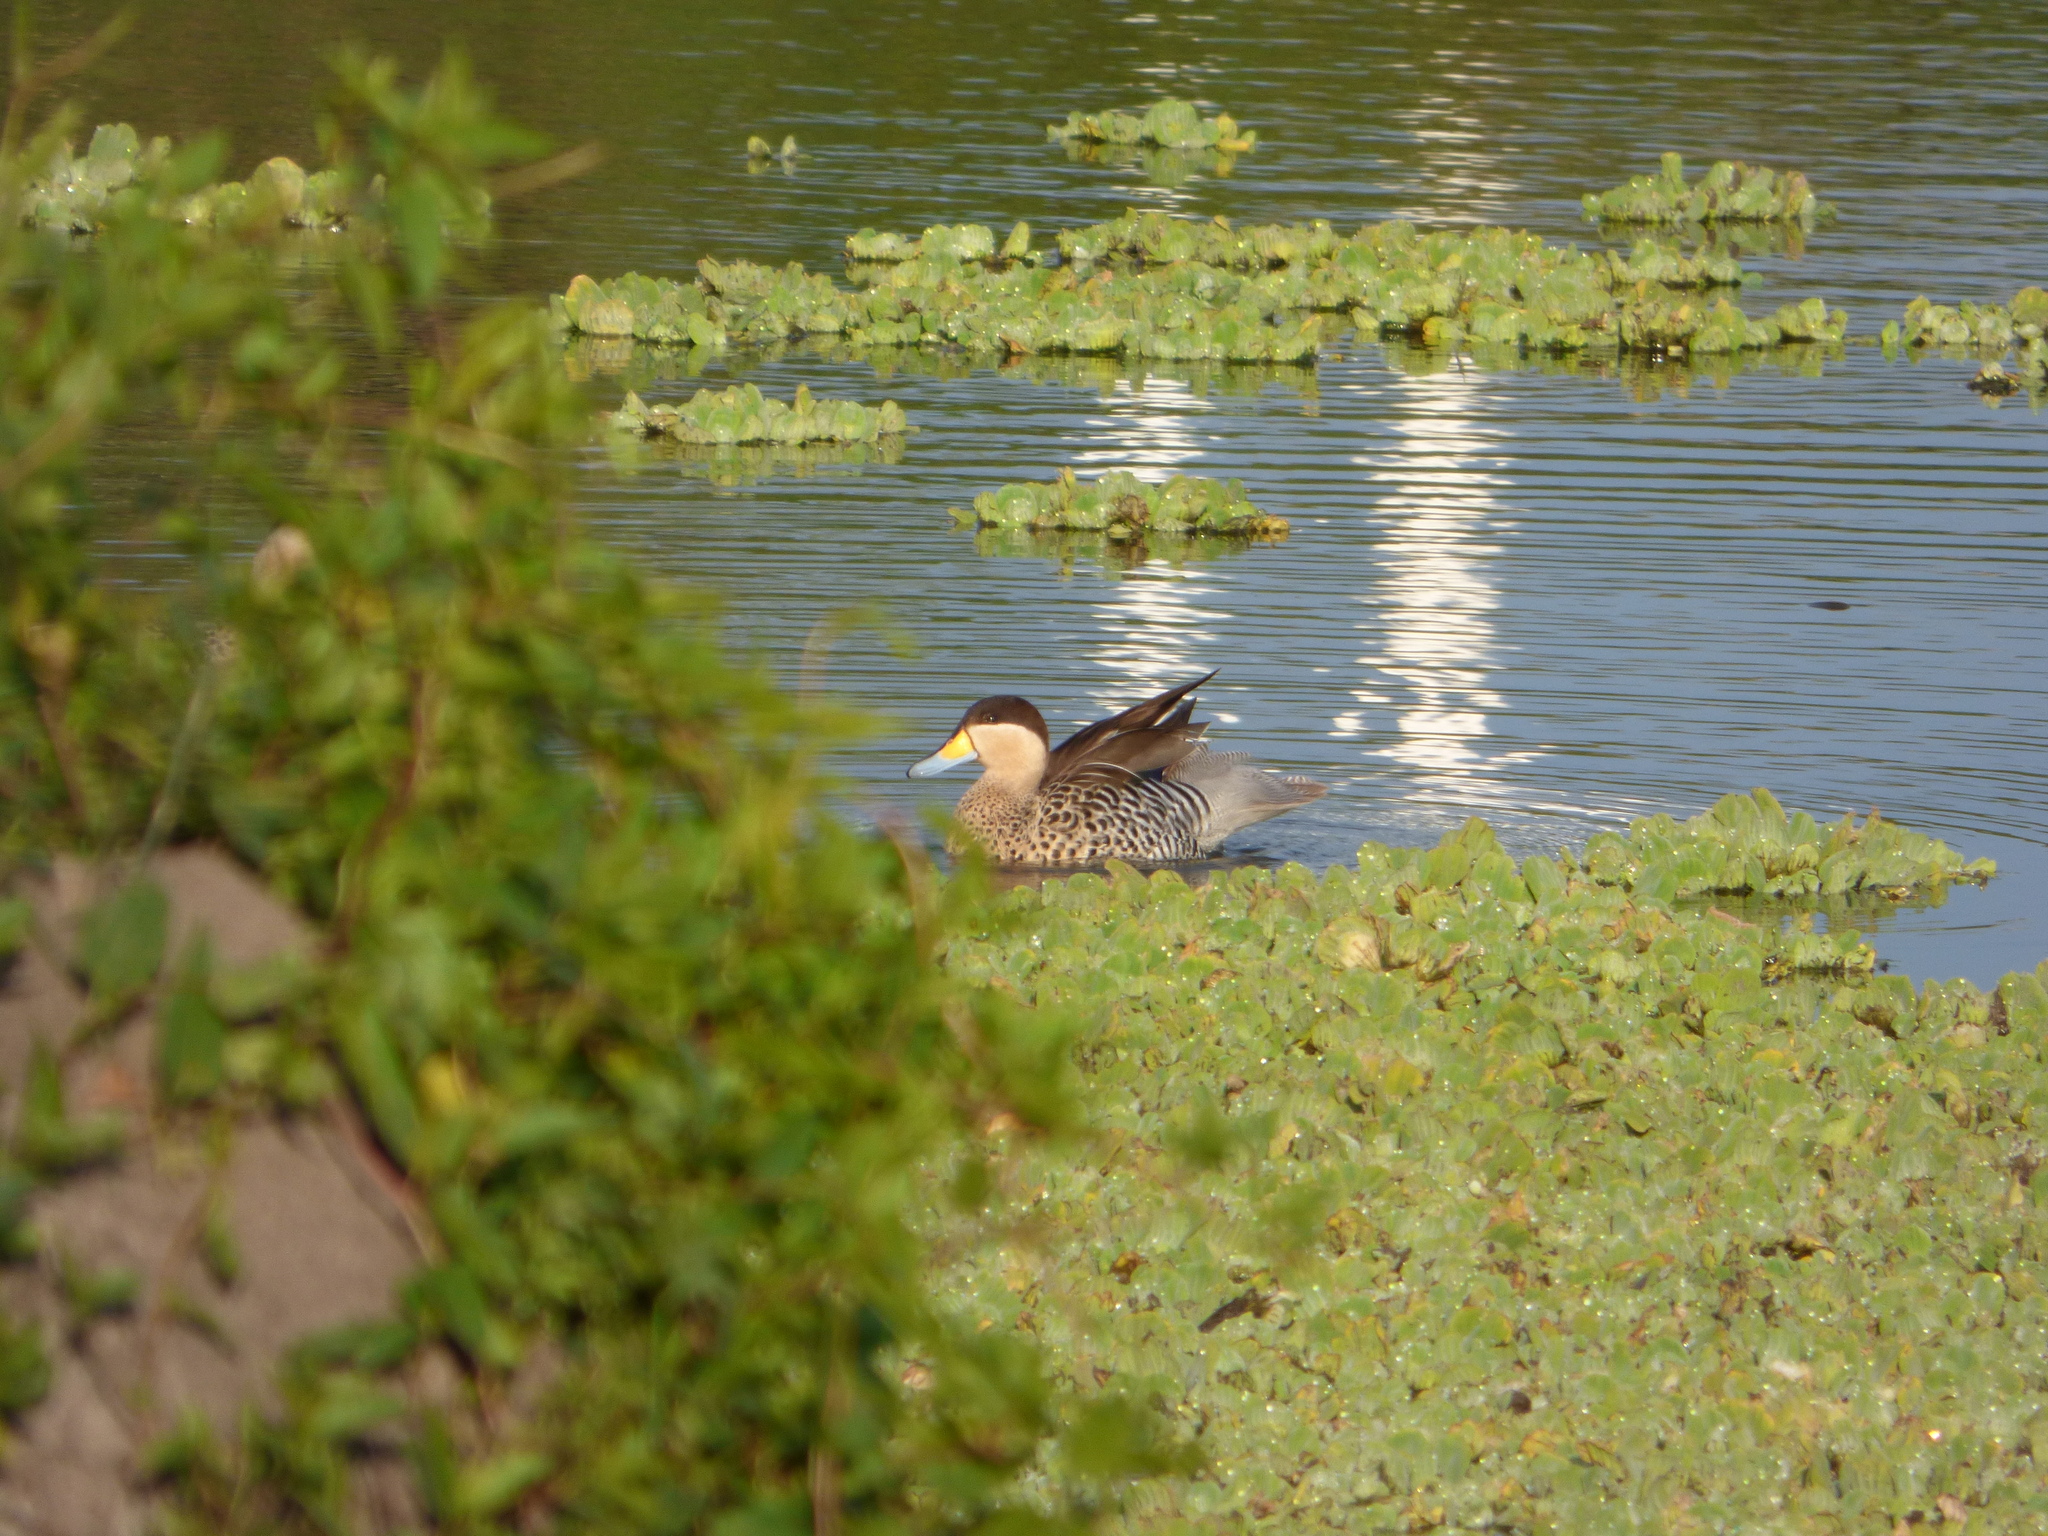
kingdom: Animalia
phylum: Chordata
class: Aves
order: Anseriformes
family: Anatidae
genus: Spatula
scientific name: Spatula versicolor
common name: Silver teal
